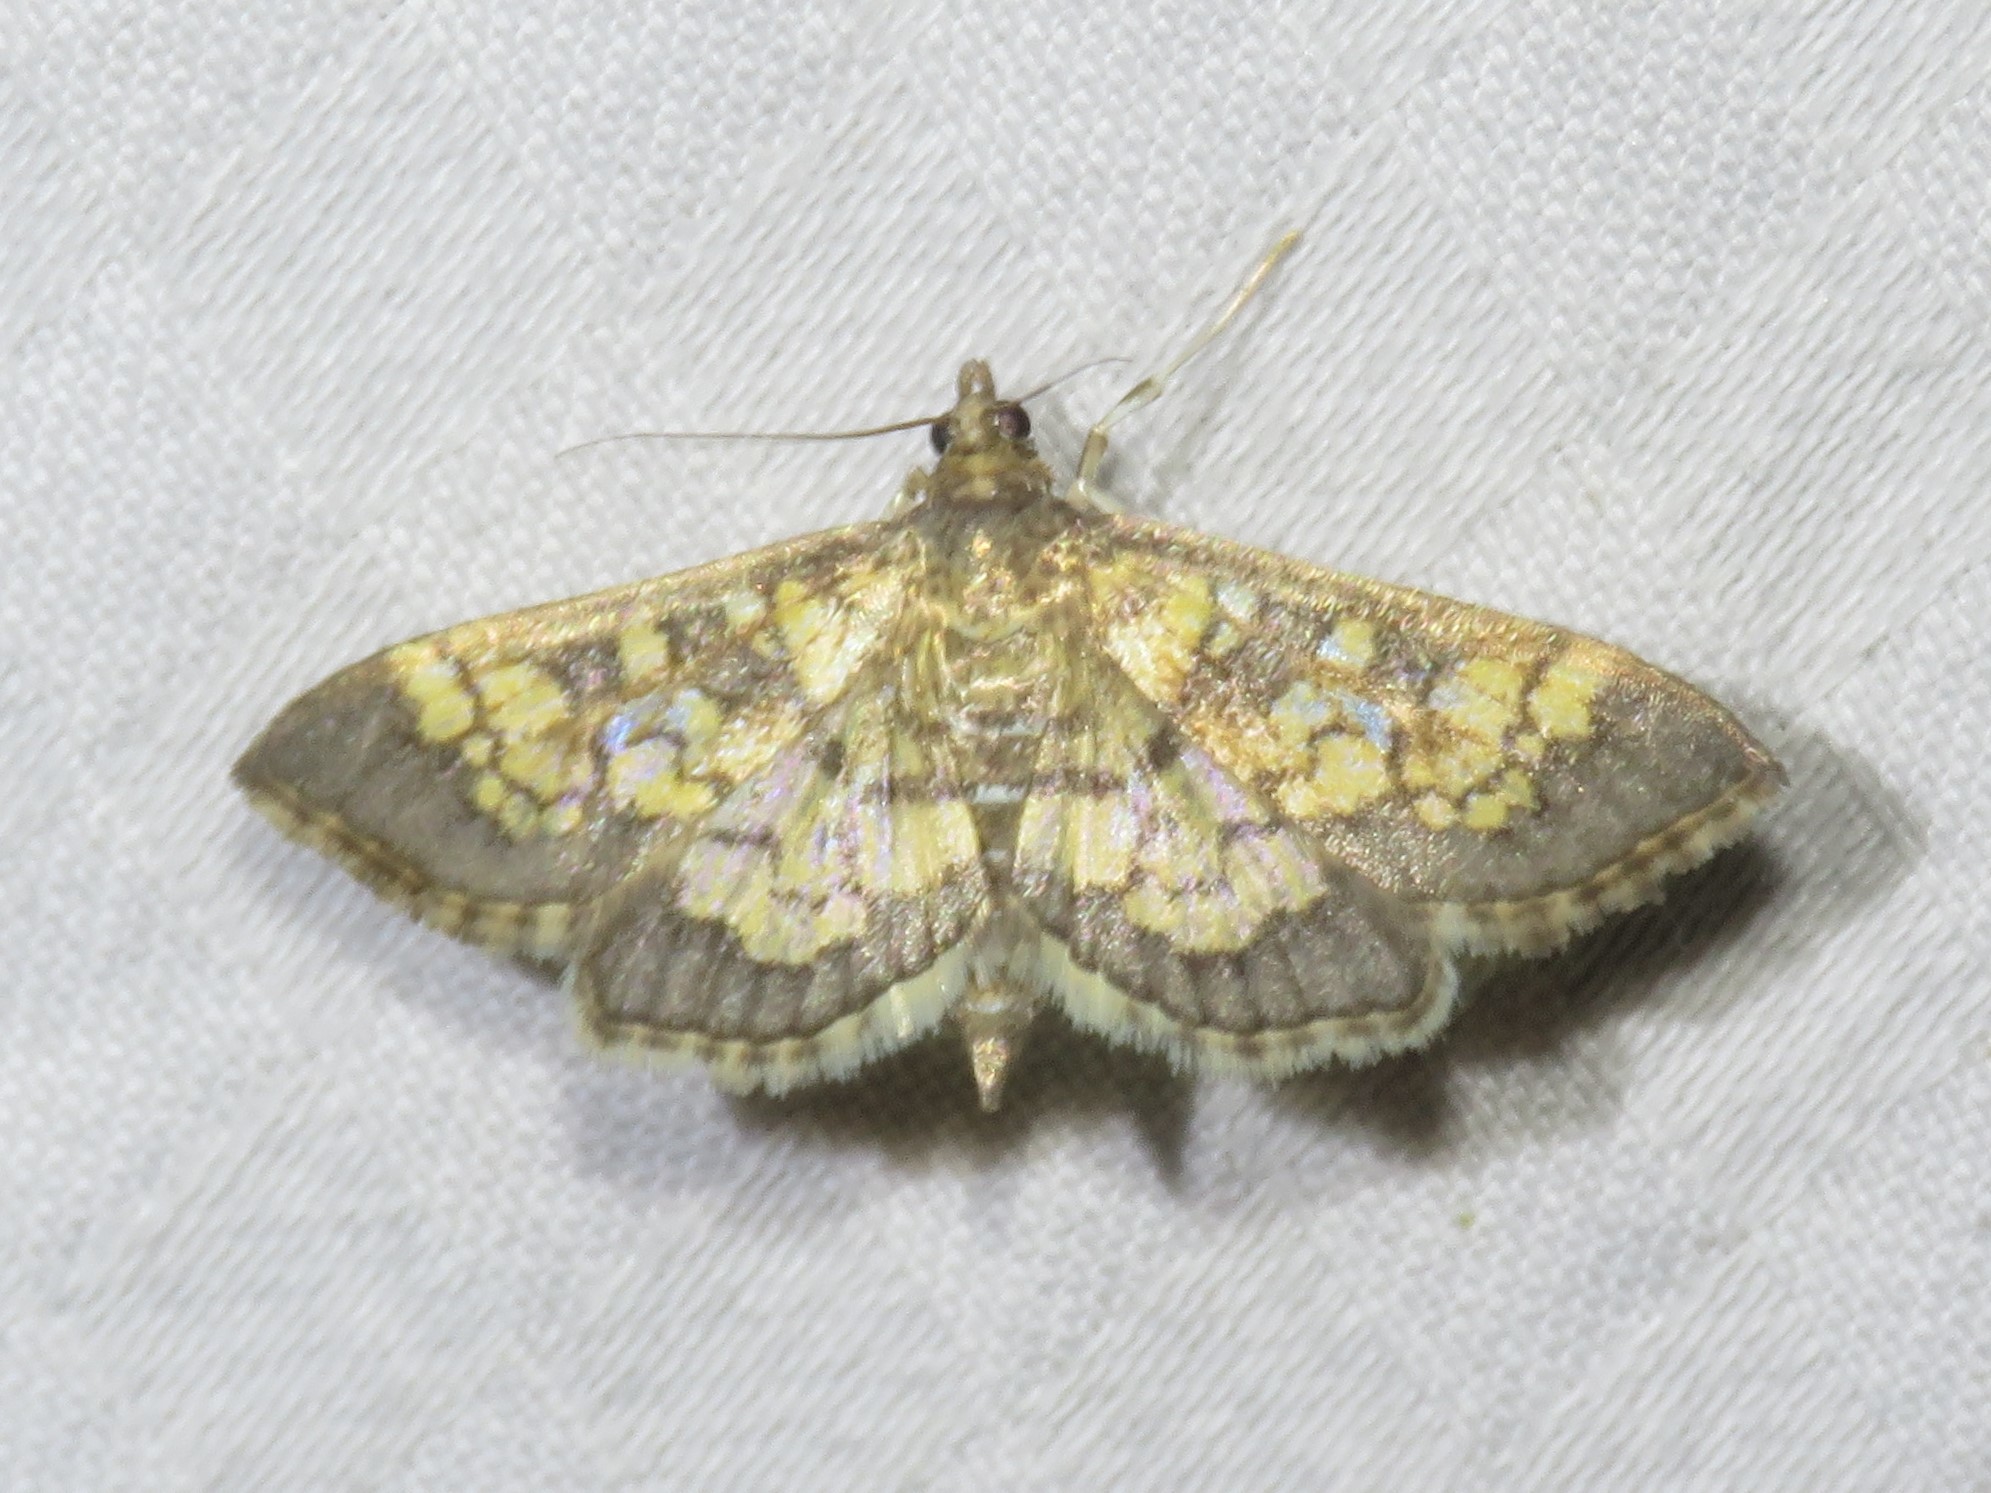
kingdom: Animalia
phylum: Arthropoda
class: Insecta
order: Lepidoptera
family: Crambidae
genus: Epipagis
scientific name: Epipagis adipaloides
